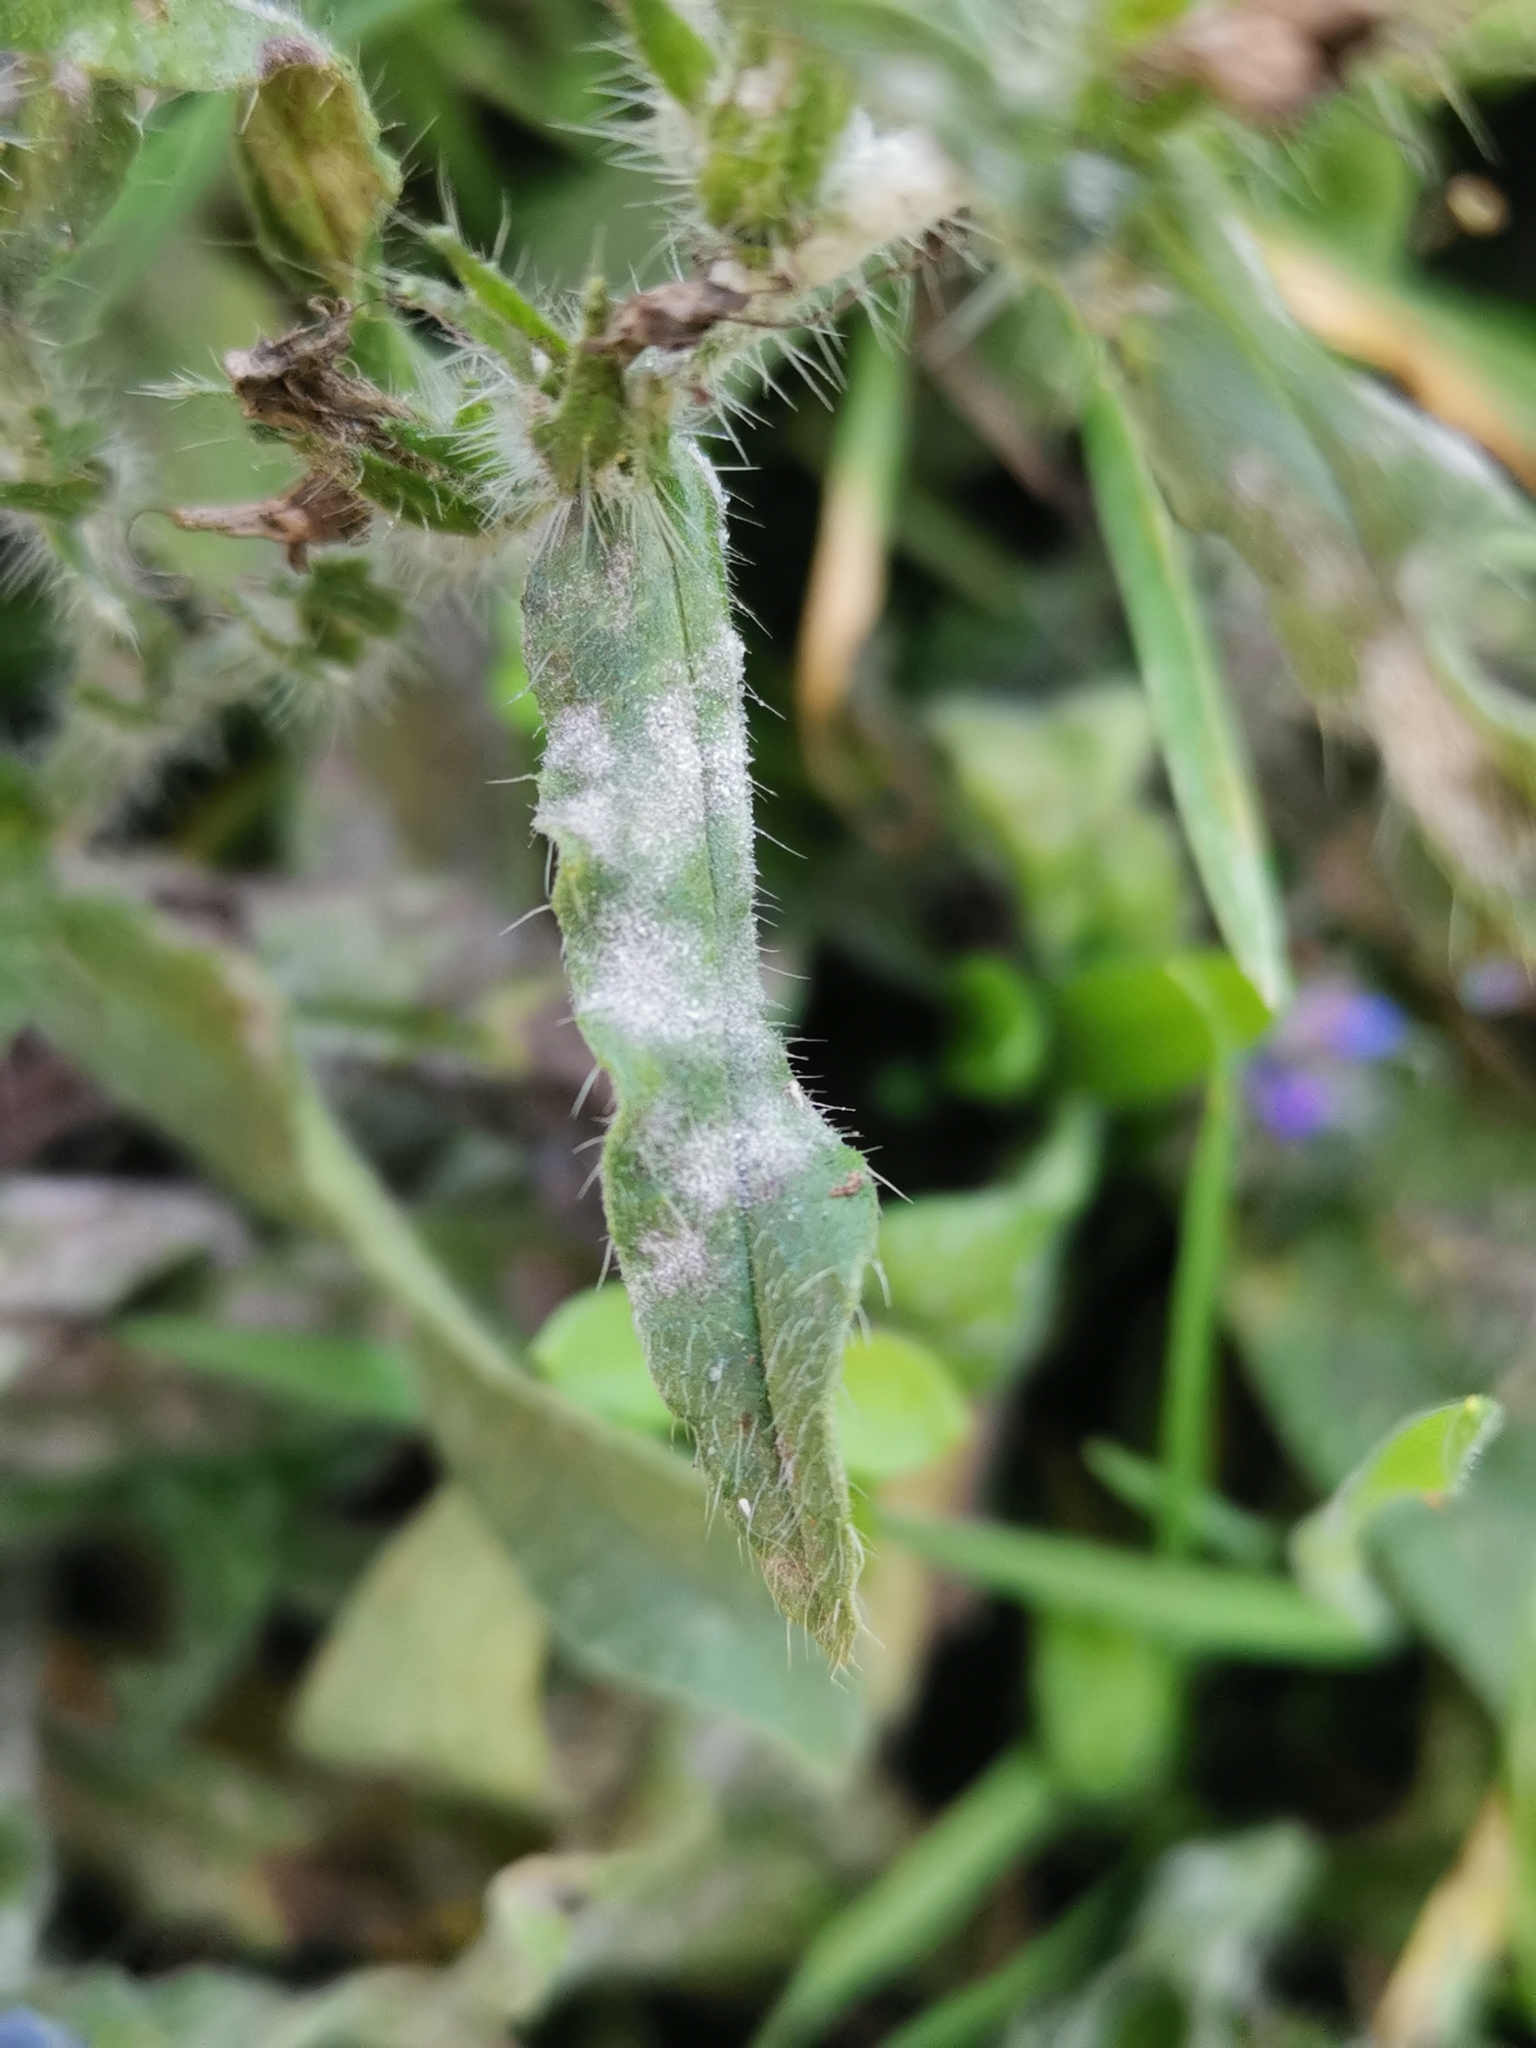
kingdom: Fungi
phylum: Ascomycota
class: Leotiomycetes
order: Helotiales
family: Erysiphaceae
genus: Golovinomyces
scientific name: Golovinomyces asperifolii
